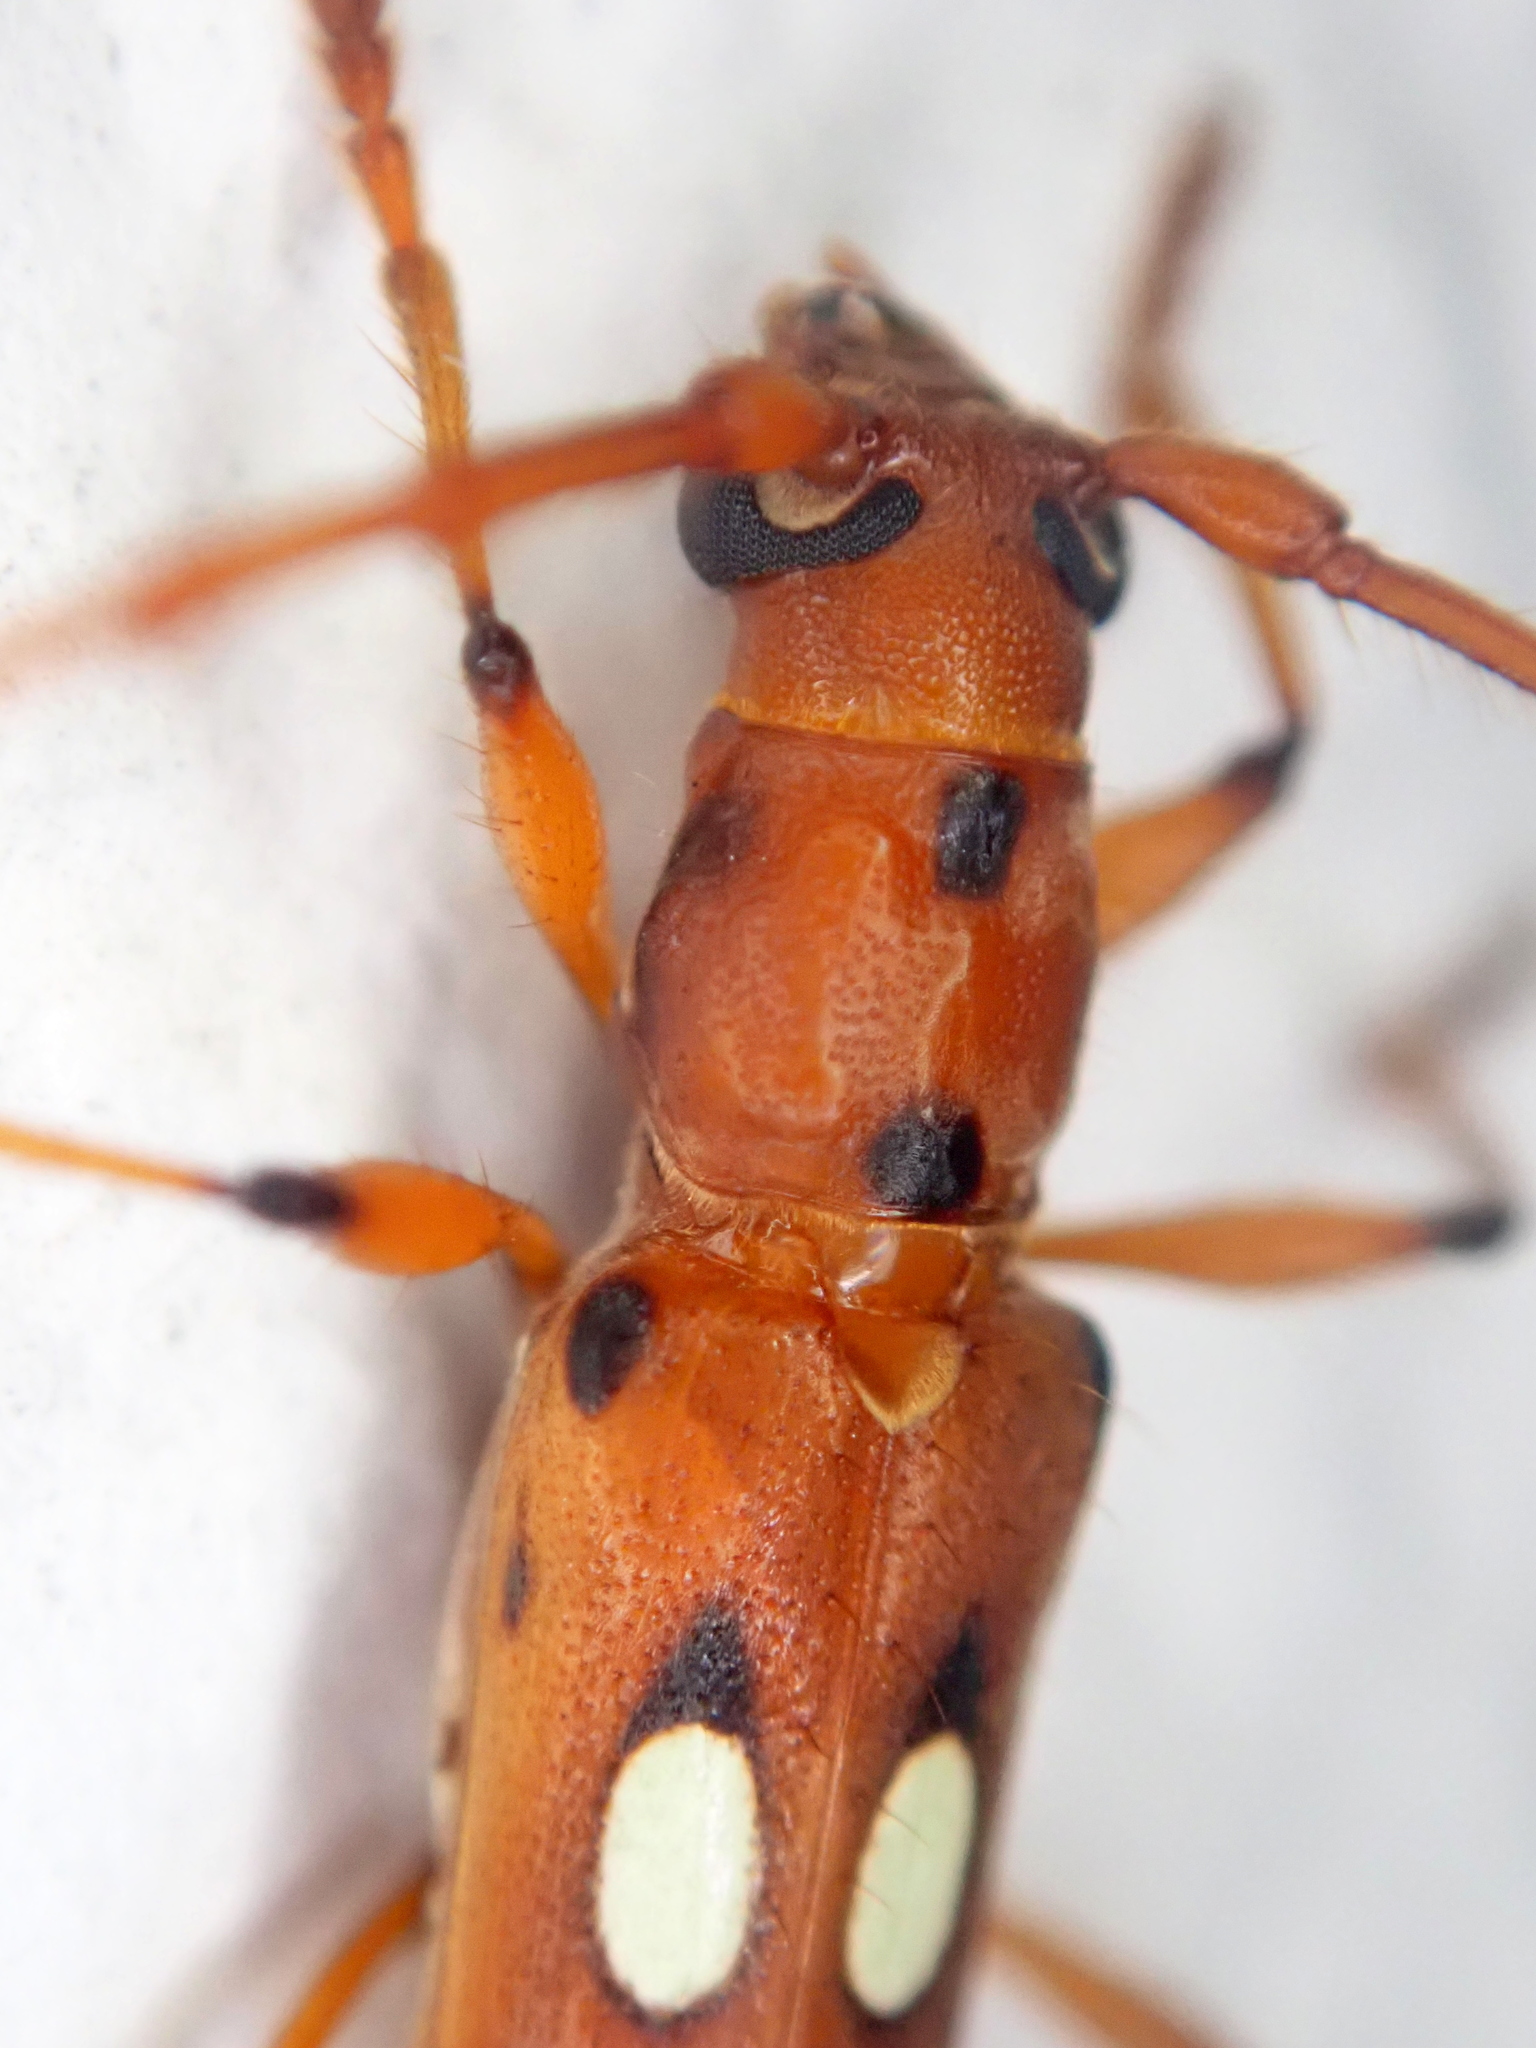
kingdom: Animalia
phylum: Arthropoda
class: Insecta
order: Coleoptera
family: Cerambycidae
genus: Paranyssicus
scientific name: Paranyssicus conspicillatus
